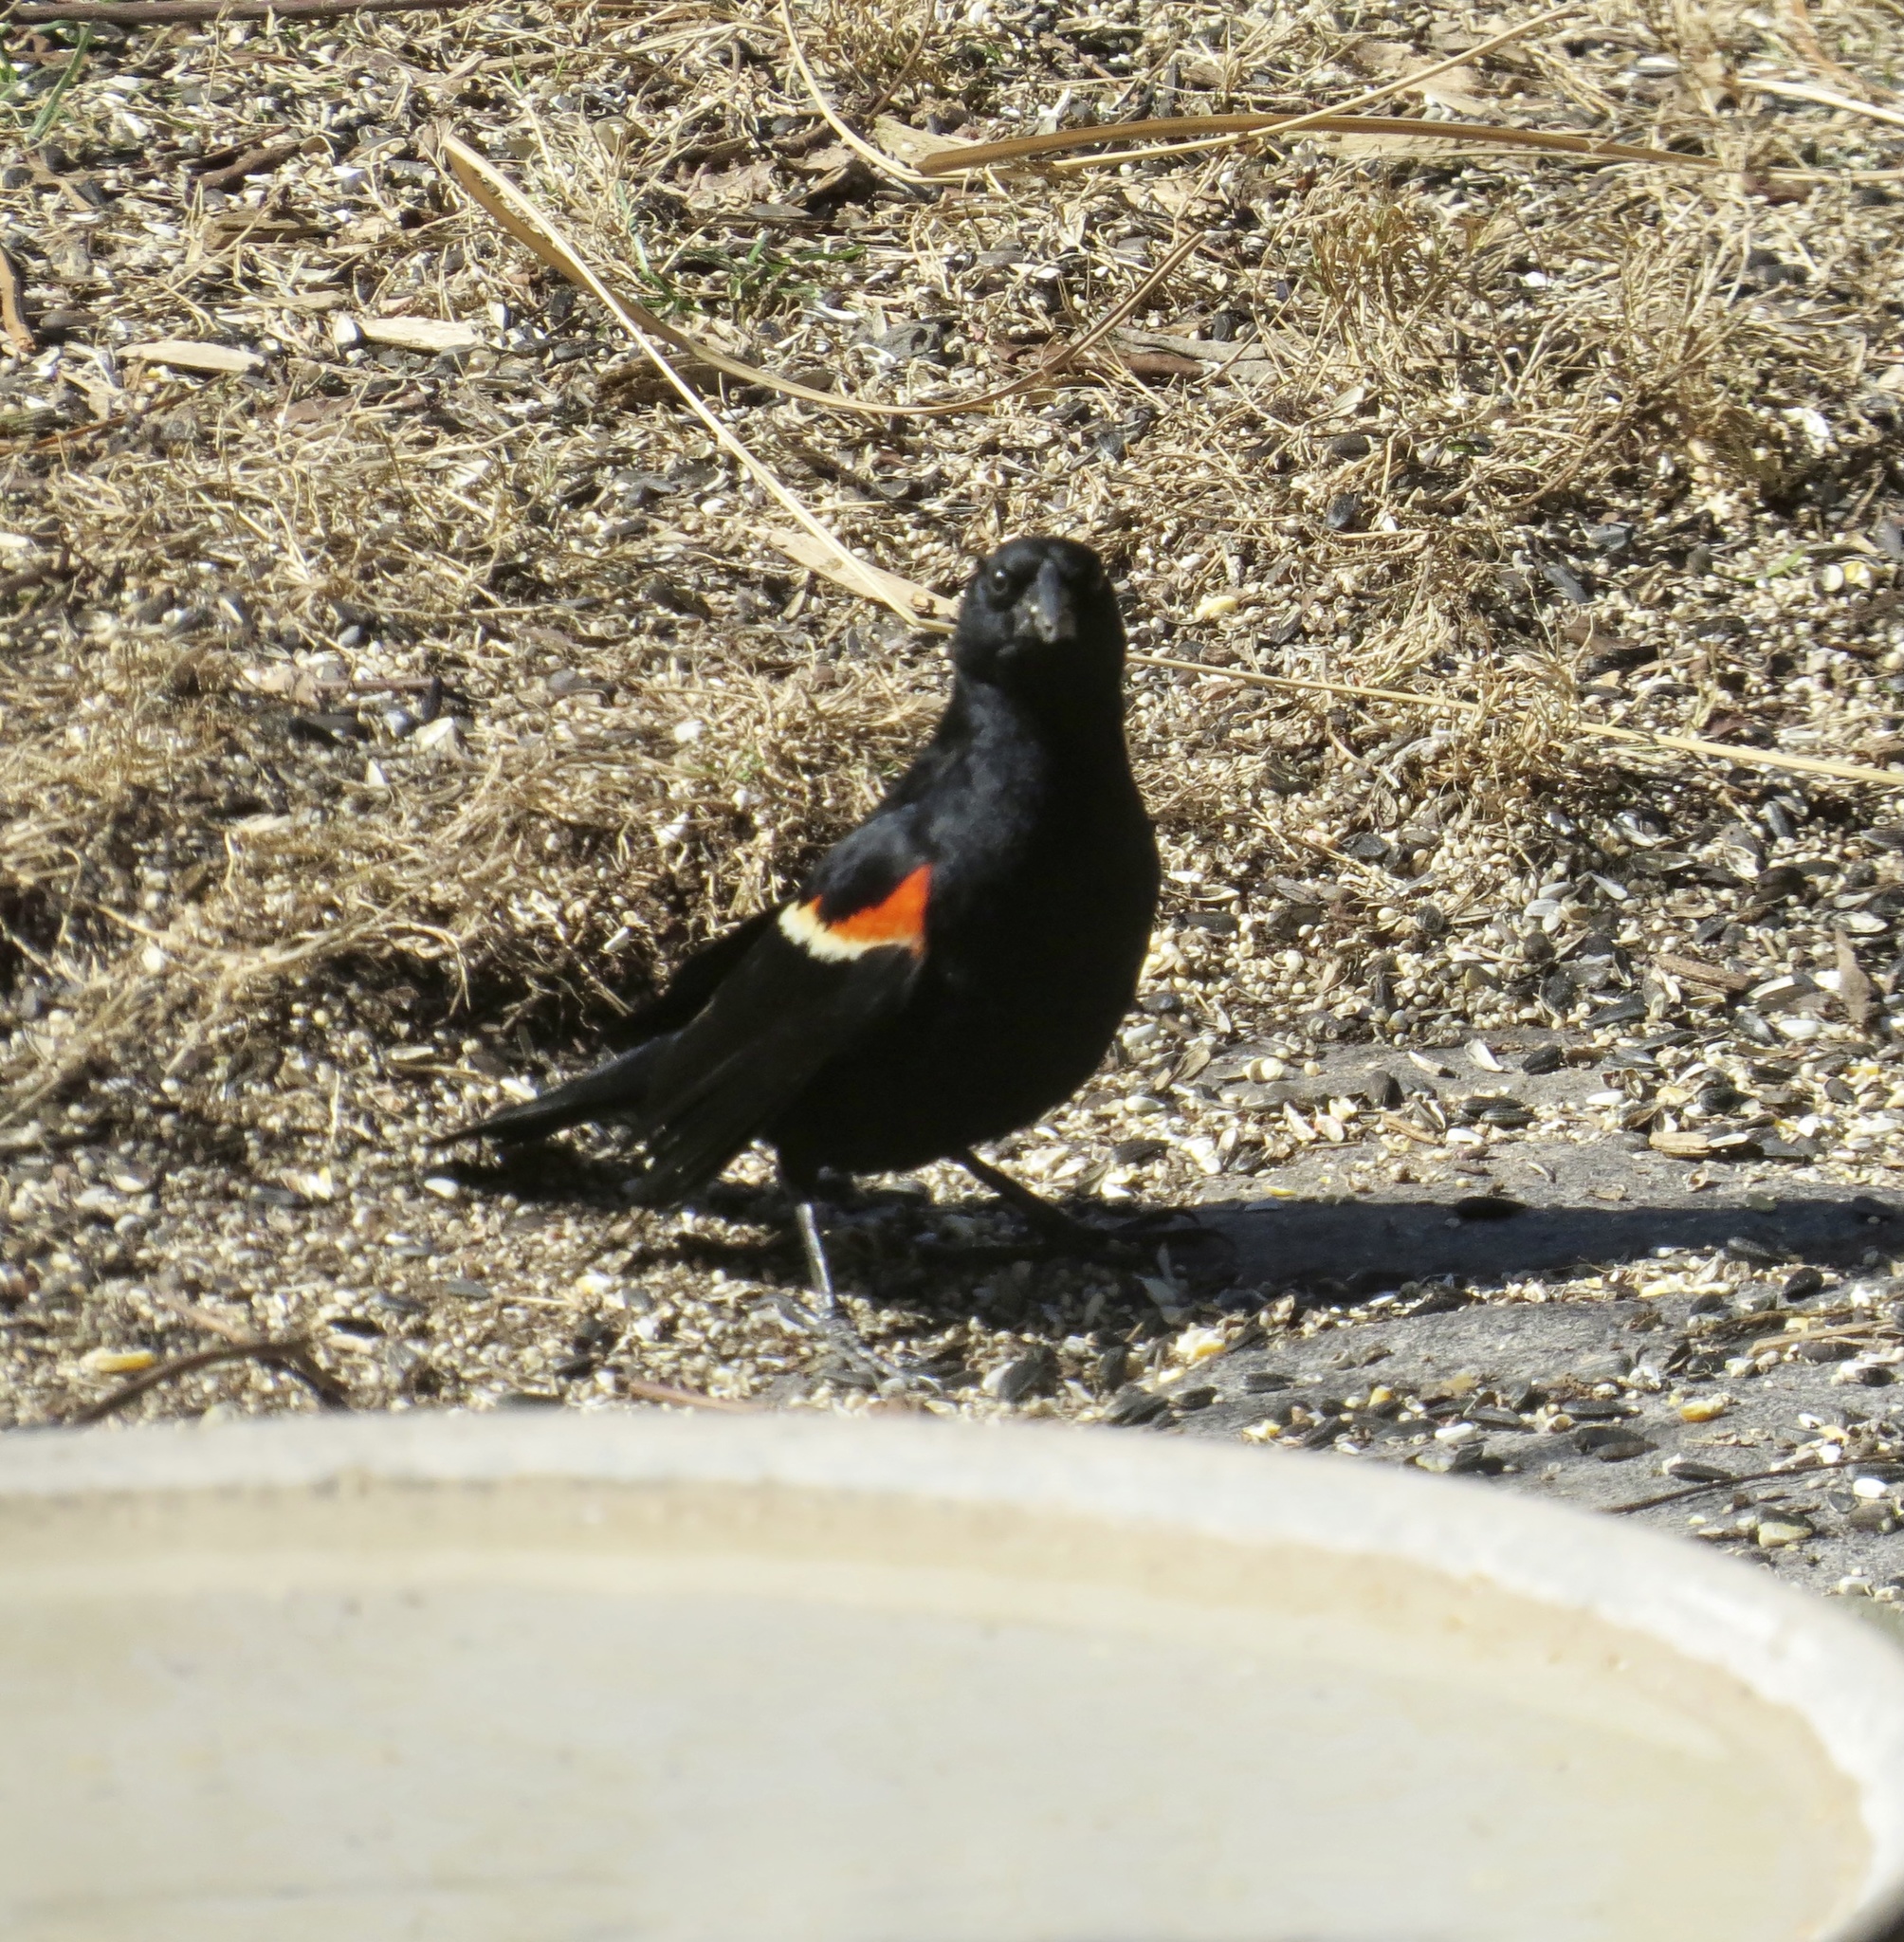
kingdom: Animalia
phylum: Chordata
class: Aves
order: Passeriformes
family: Icteridae
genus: Agelaius
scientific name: Agelaius phoeniceus
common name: Red-winged blackbird
